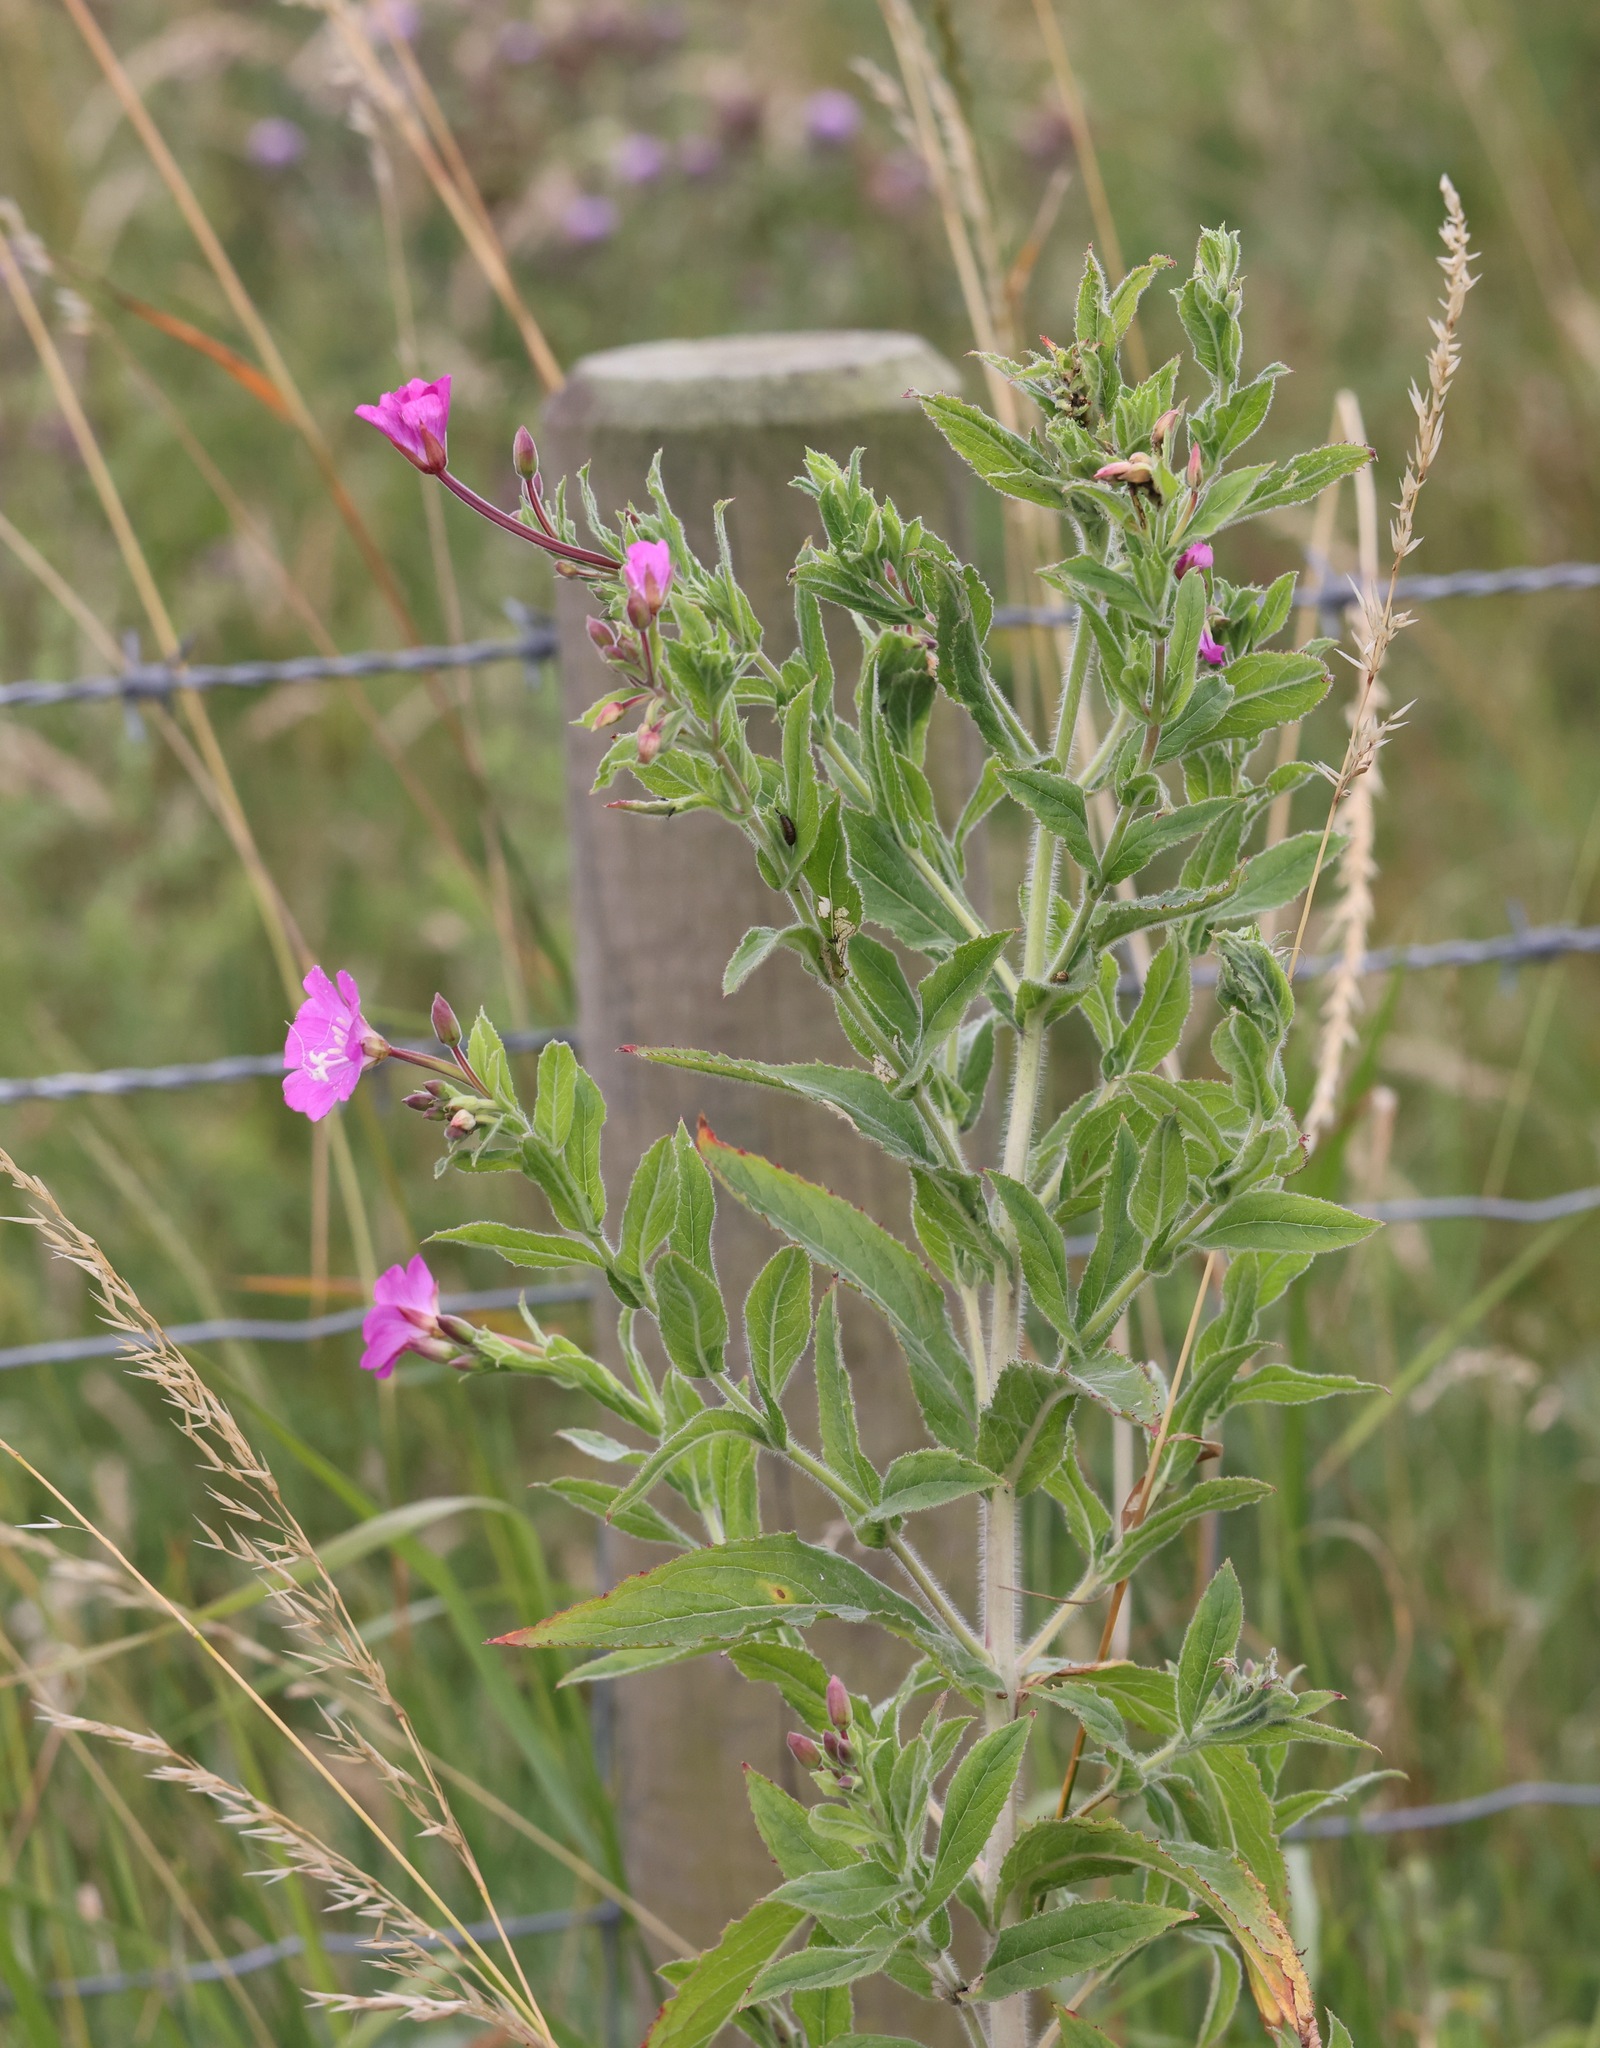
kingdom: Plantae
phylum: Tracheophyta
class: Magnoliopsida
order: Myrtales
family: Onagraceae
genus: Epilobium
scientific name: Epilobium hirsutum
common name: Great willowherb
